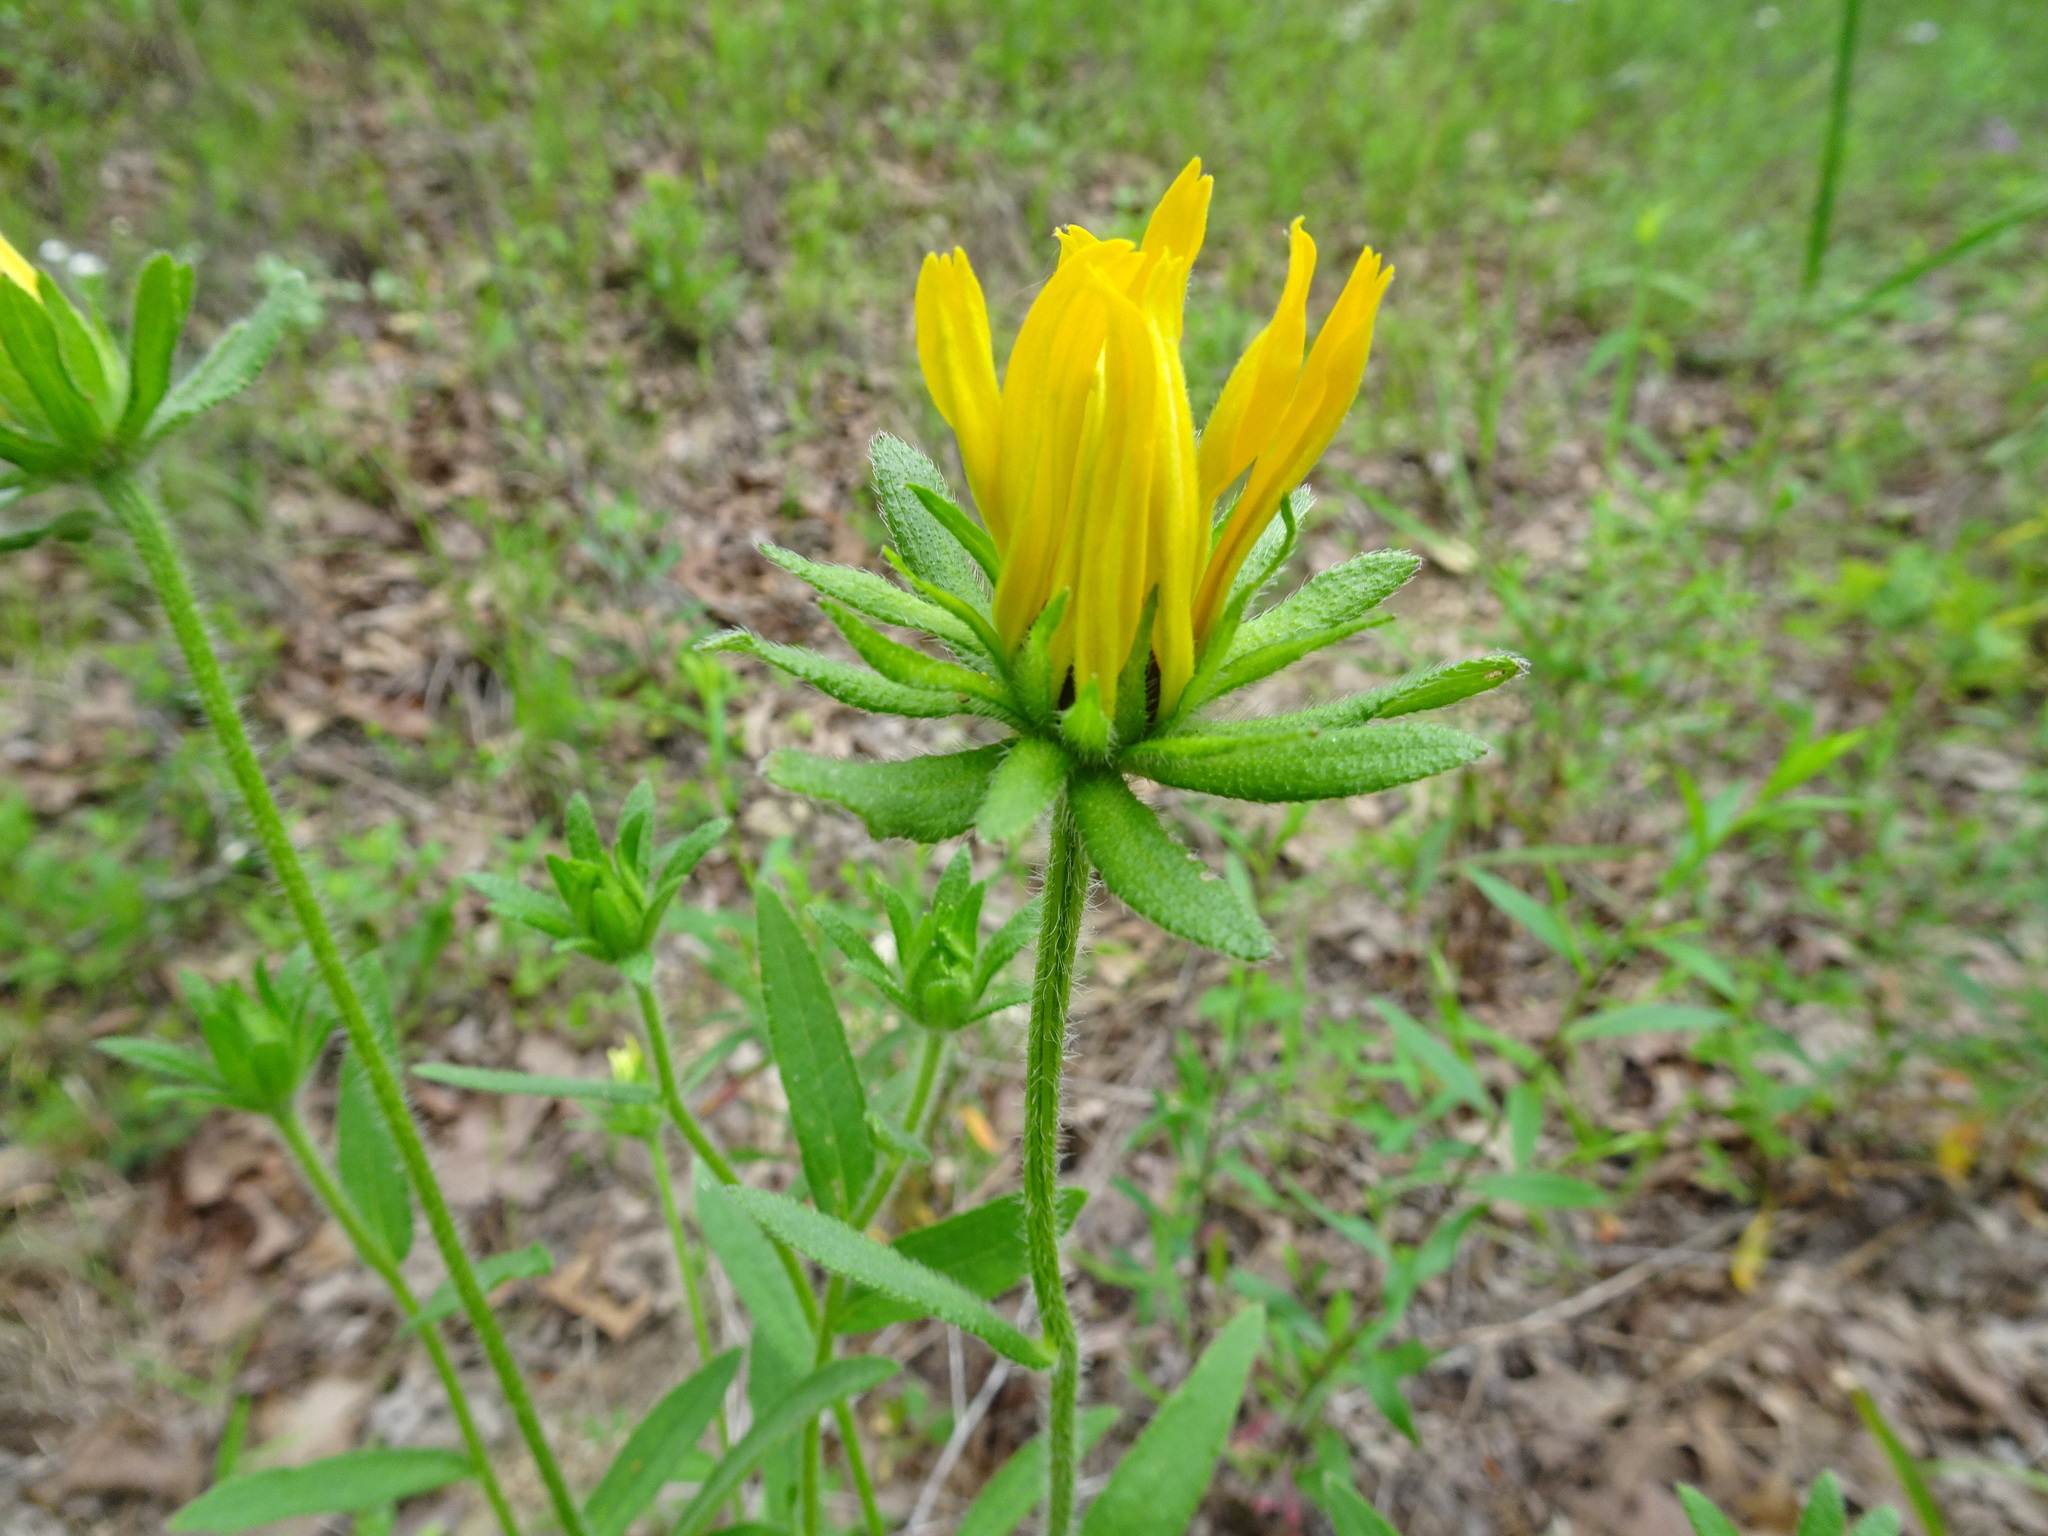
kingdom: Plantae
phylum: Tracheophyta
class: Magnoliopsida
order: Asterales
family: Asteraceae
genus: Rudbeckia
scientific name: Rudbeckia hirta
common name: Black-eyed-susan
